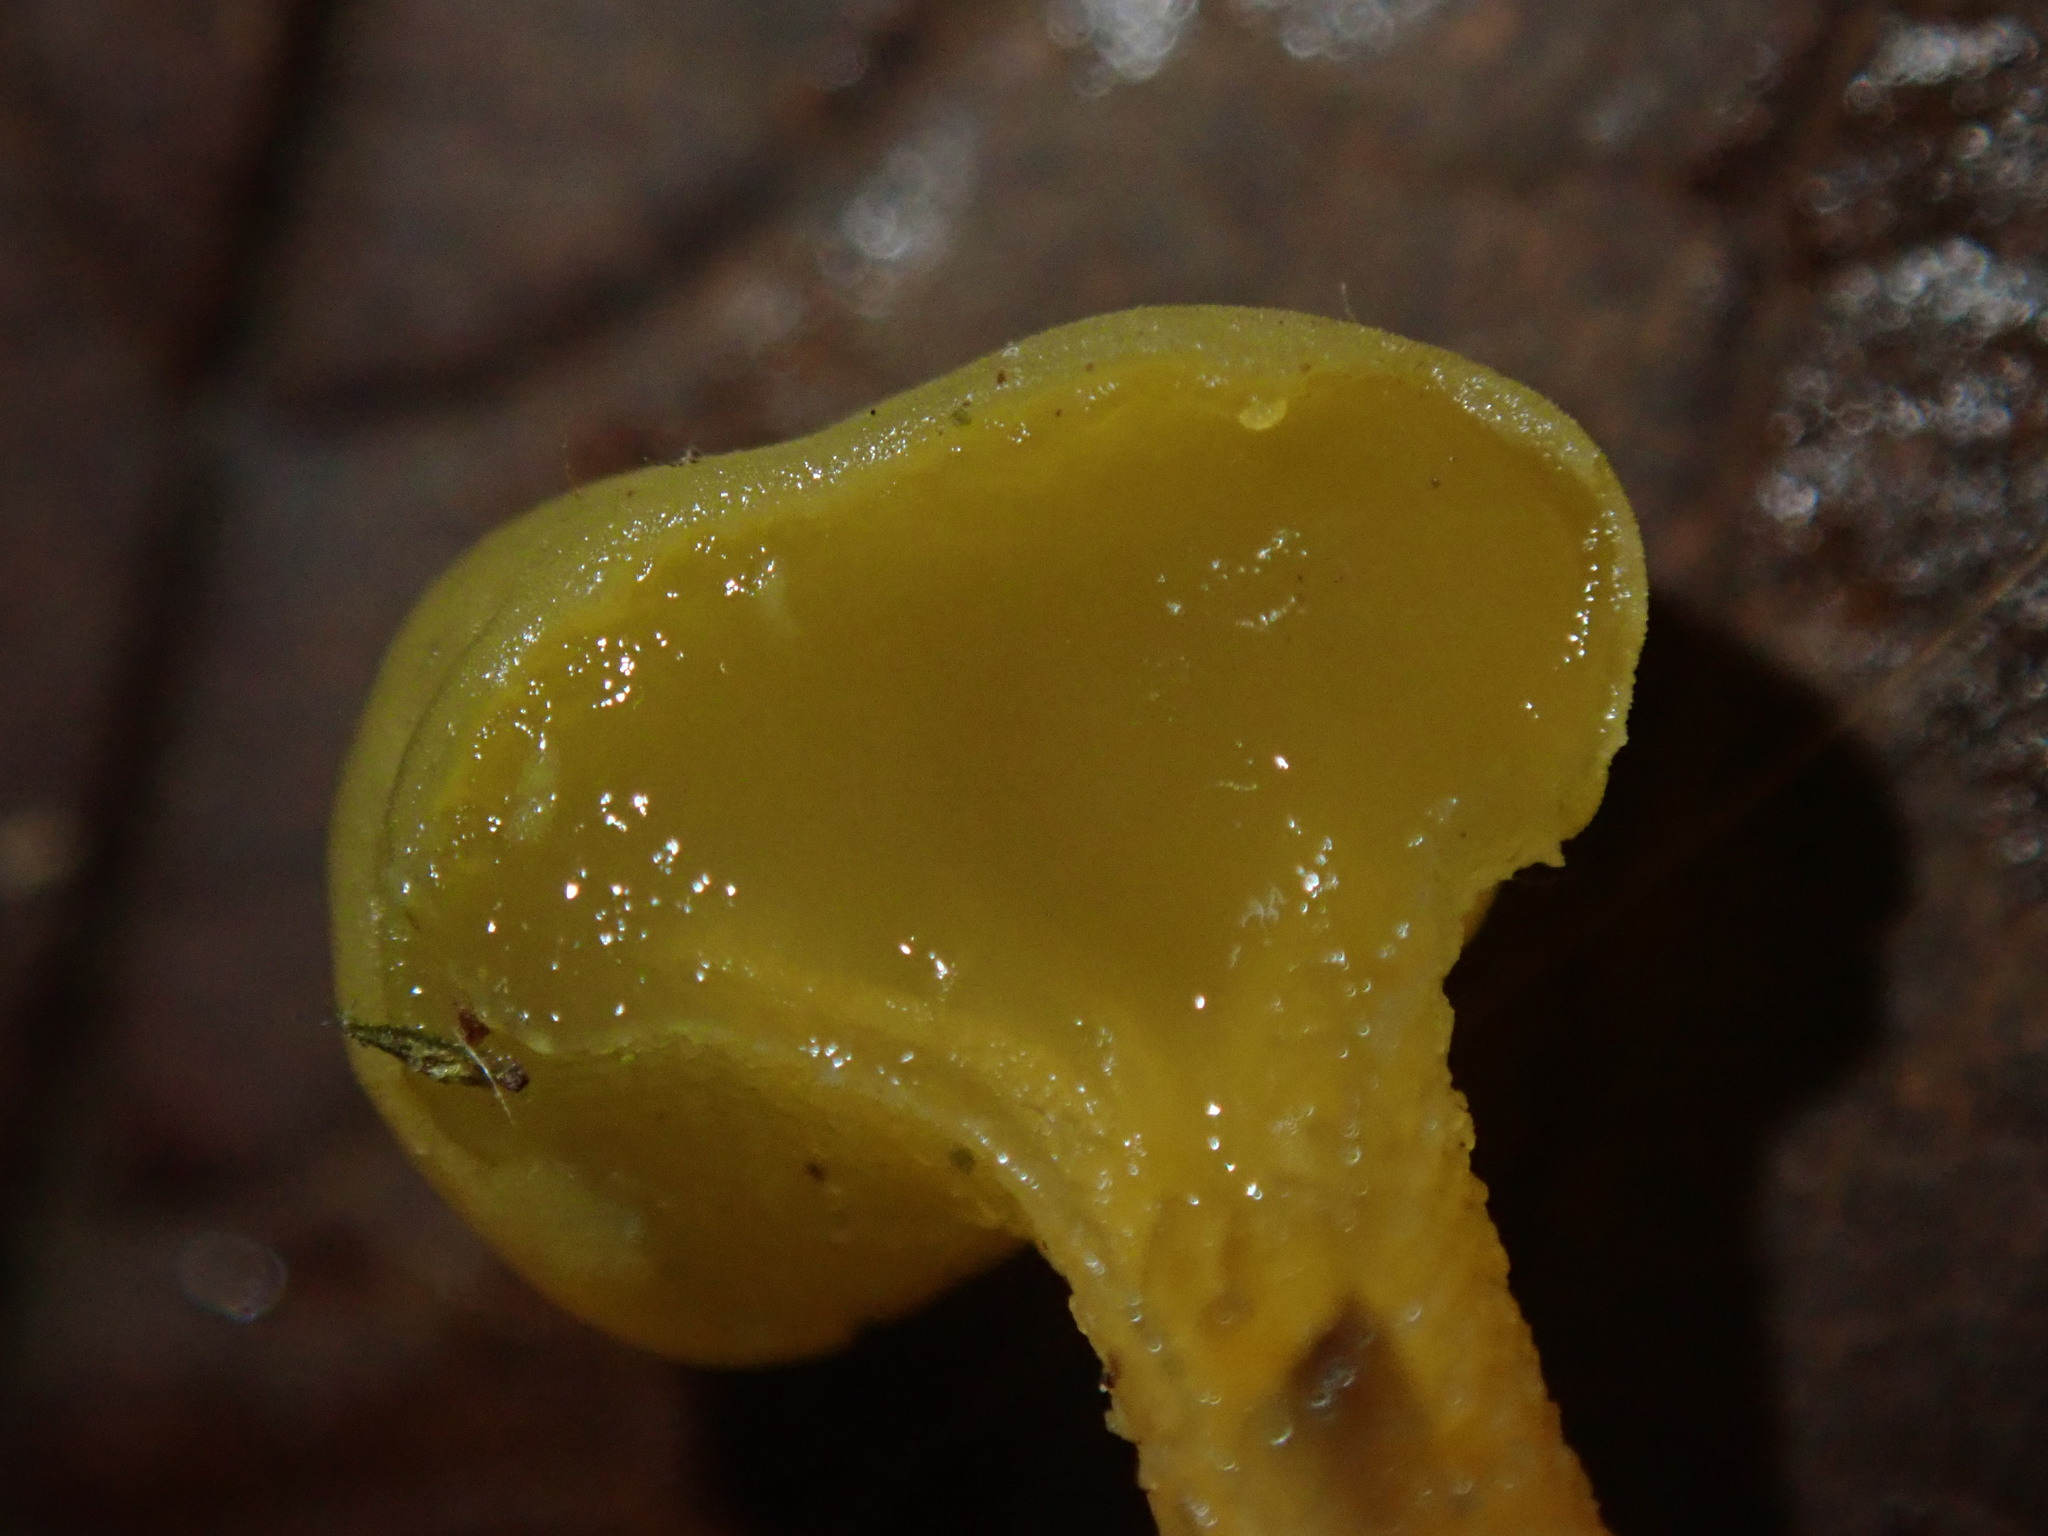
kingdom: Fungi
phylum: Ascomycota
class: Leotiomycetes
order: Leotiales
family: Leotiaceae
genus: Leotia
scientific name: Leotia lubrica
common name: Jellybaby
